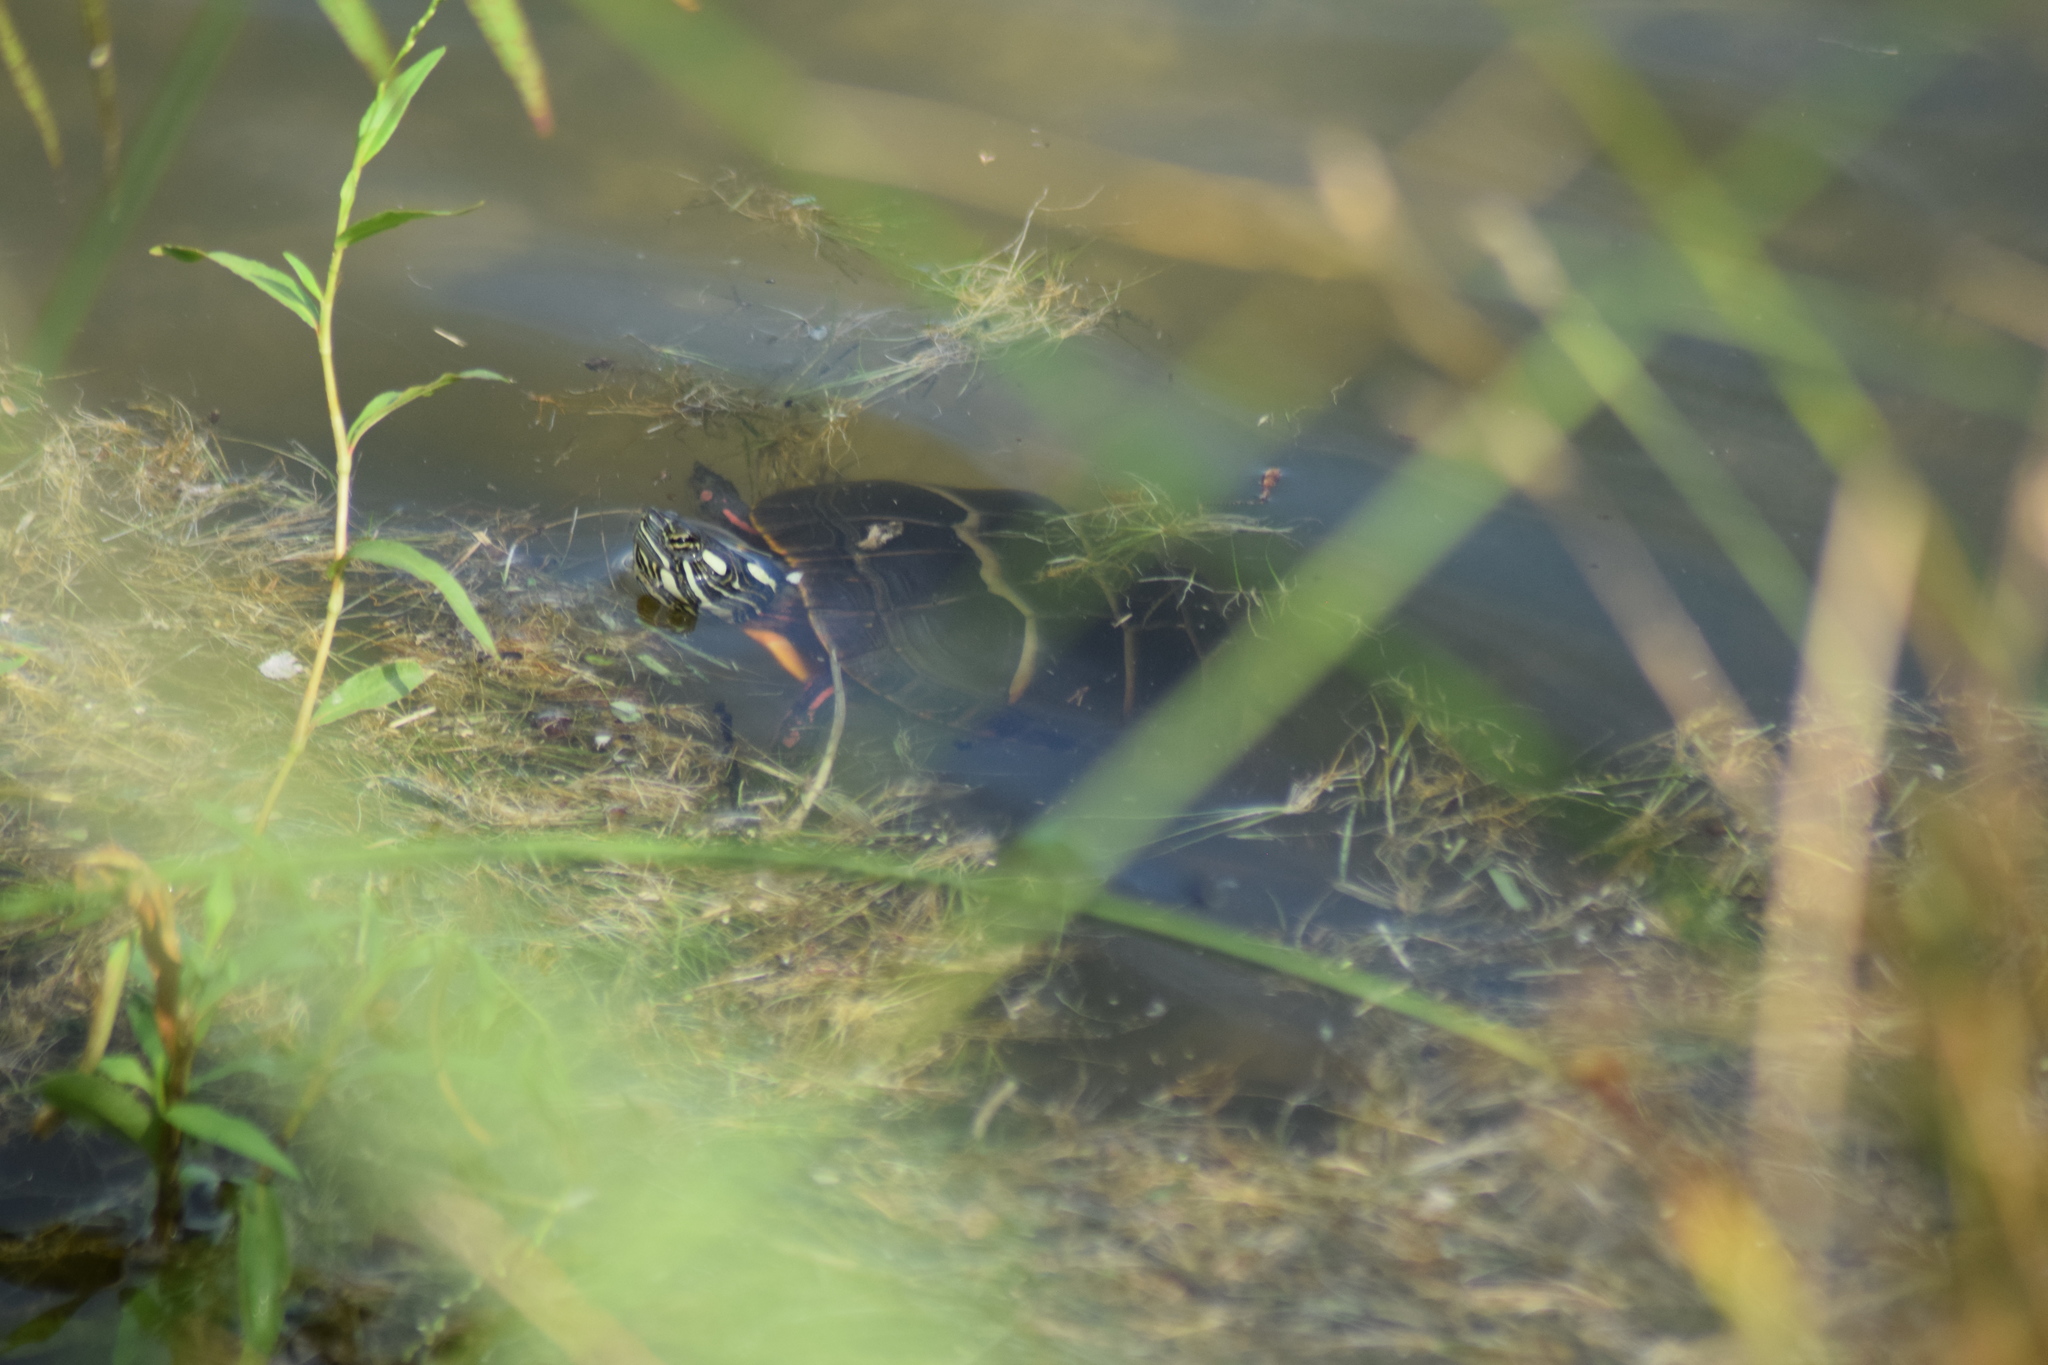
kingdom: Animalia
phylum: Chordata
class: Testudines
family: Emydidae
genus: Chrysemys
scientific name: Chrysemys picta
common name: Painted turtle
